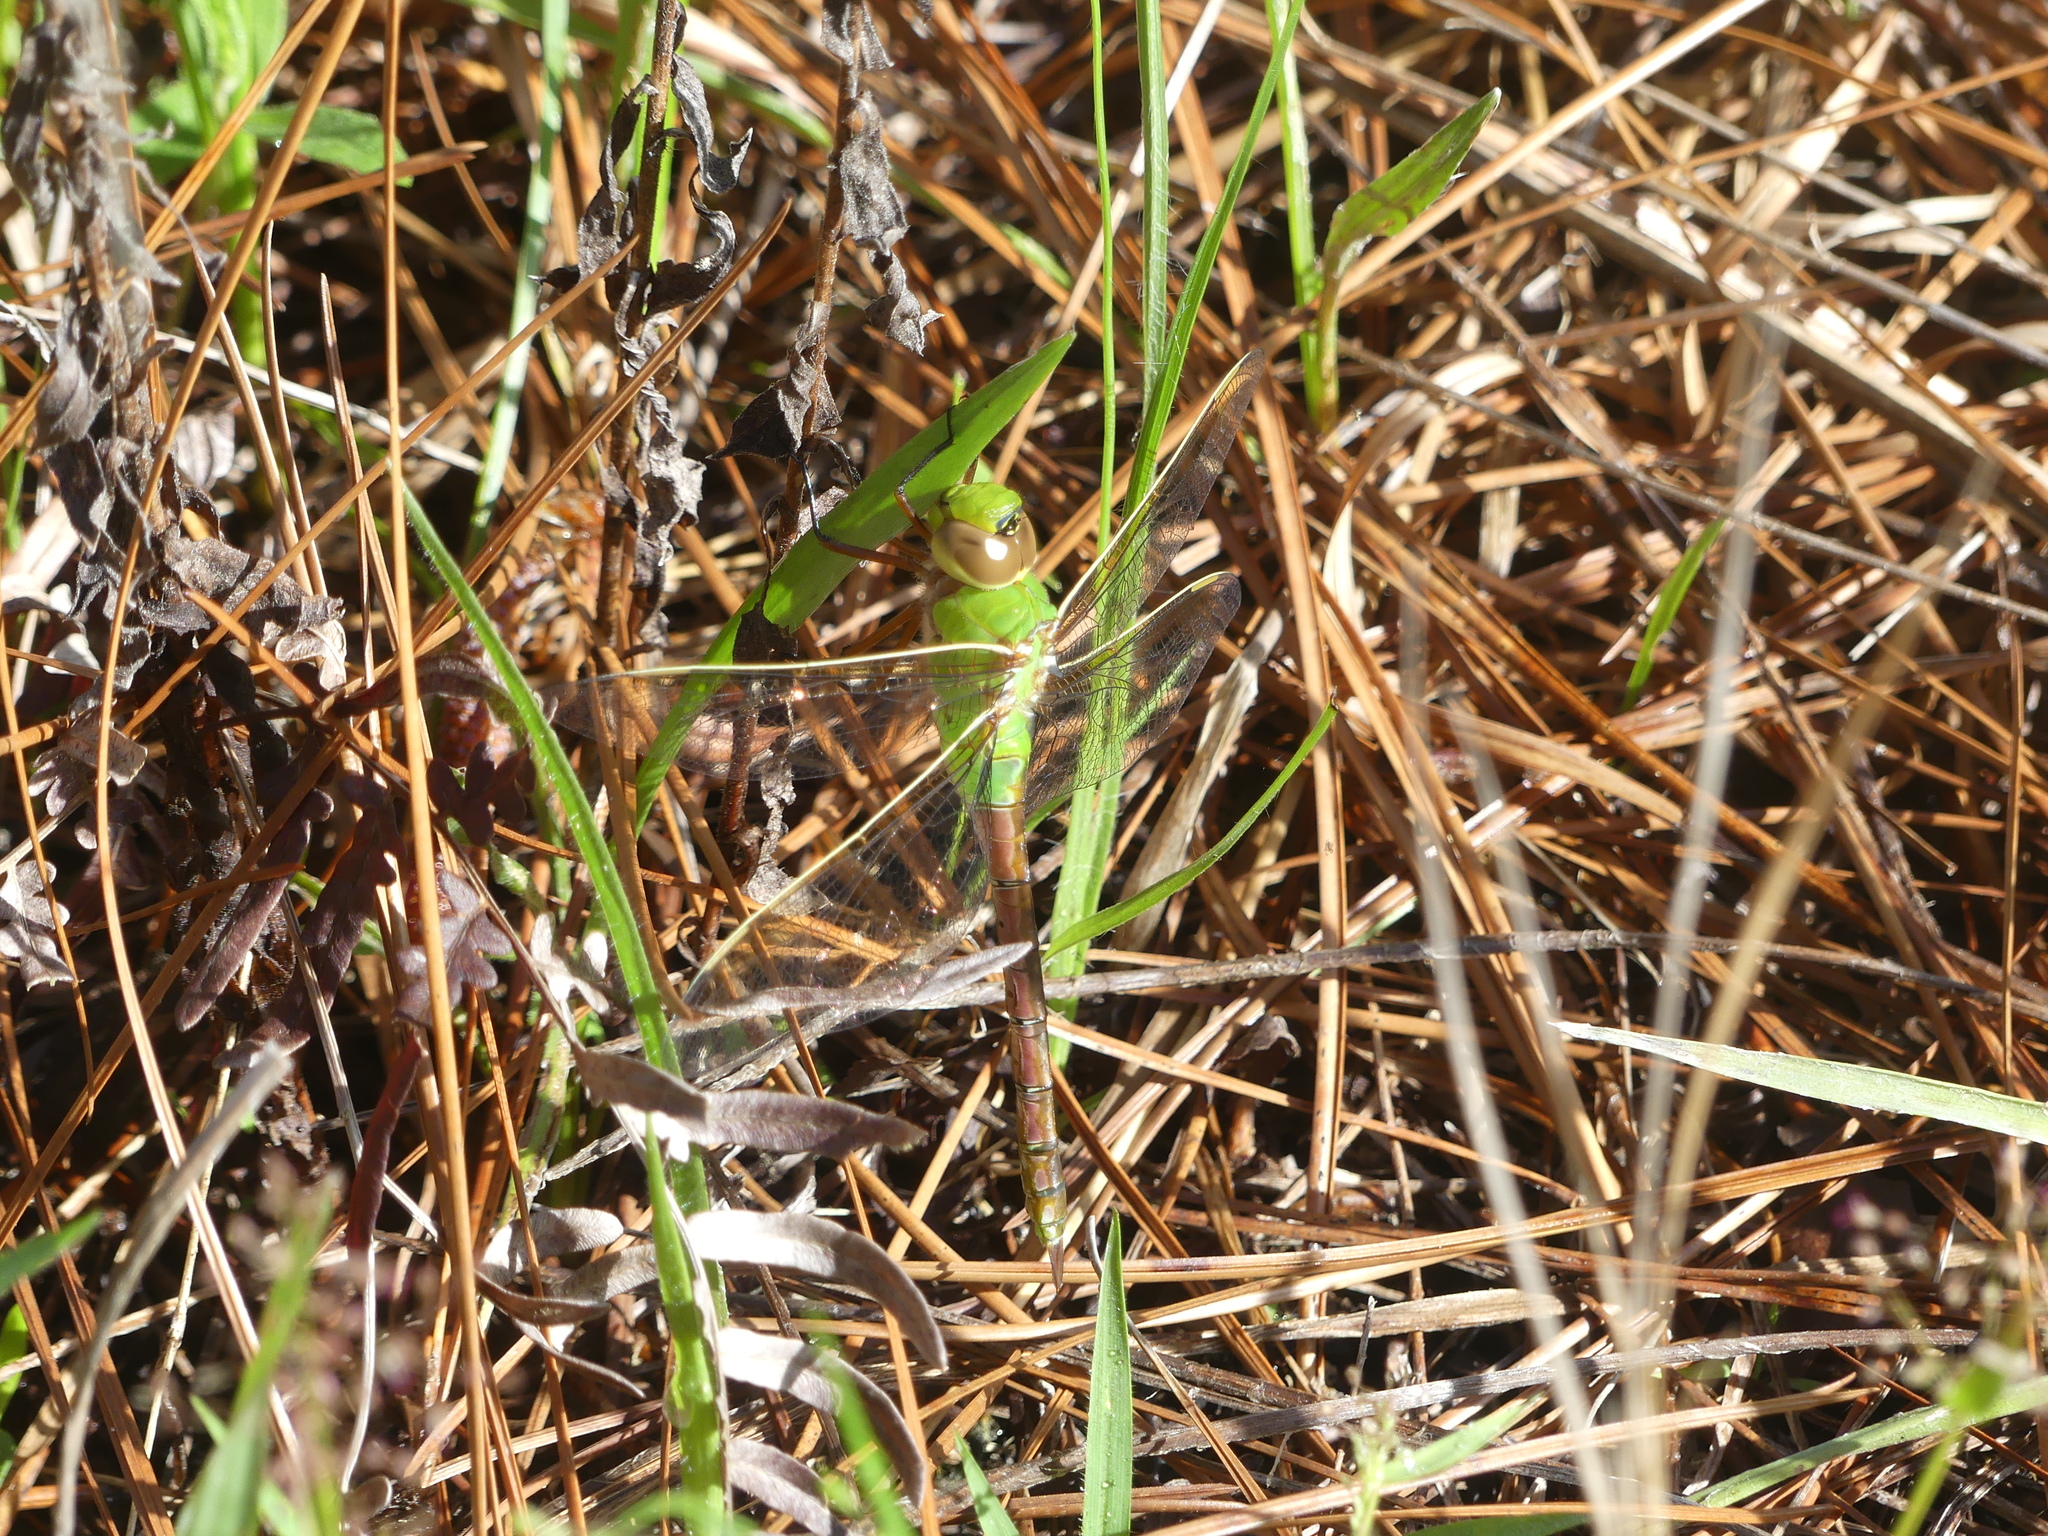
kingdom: Animalia
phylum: Arthropoda
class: Insecta
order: Odonata
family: Aeshnidae
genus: Anax
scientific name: Anax junius
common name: Common green darner
